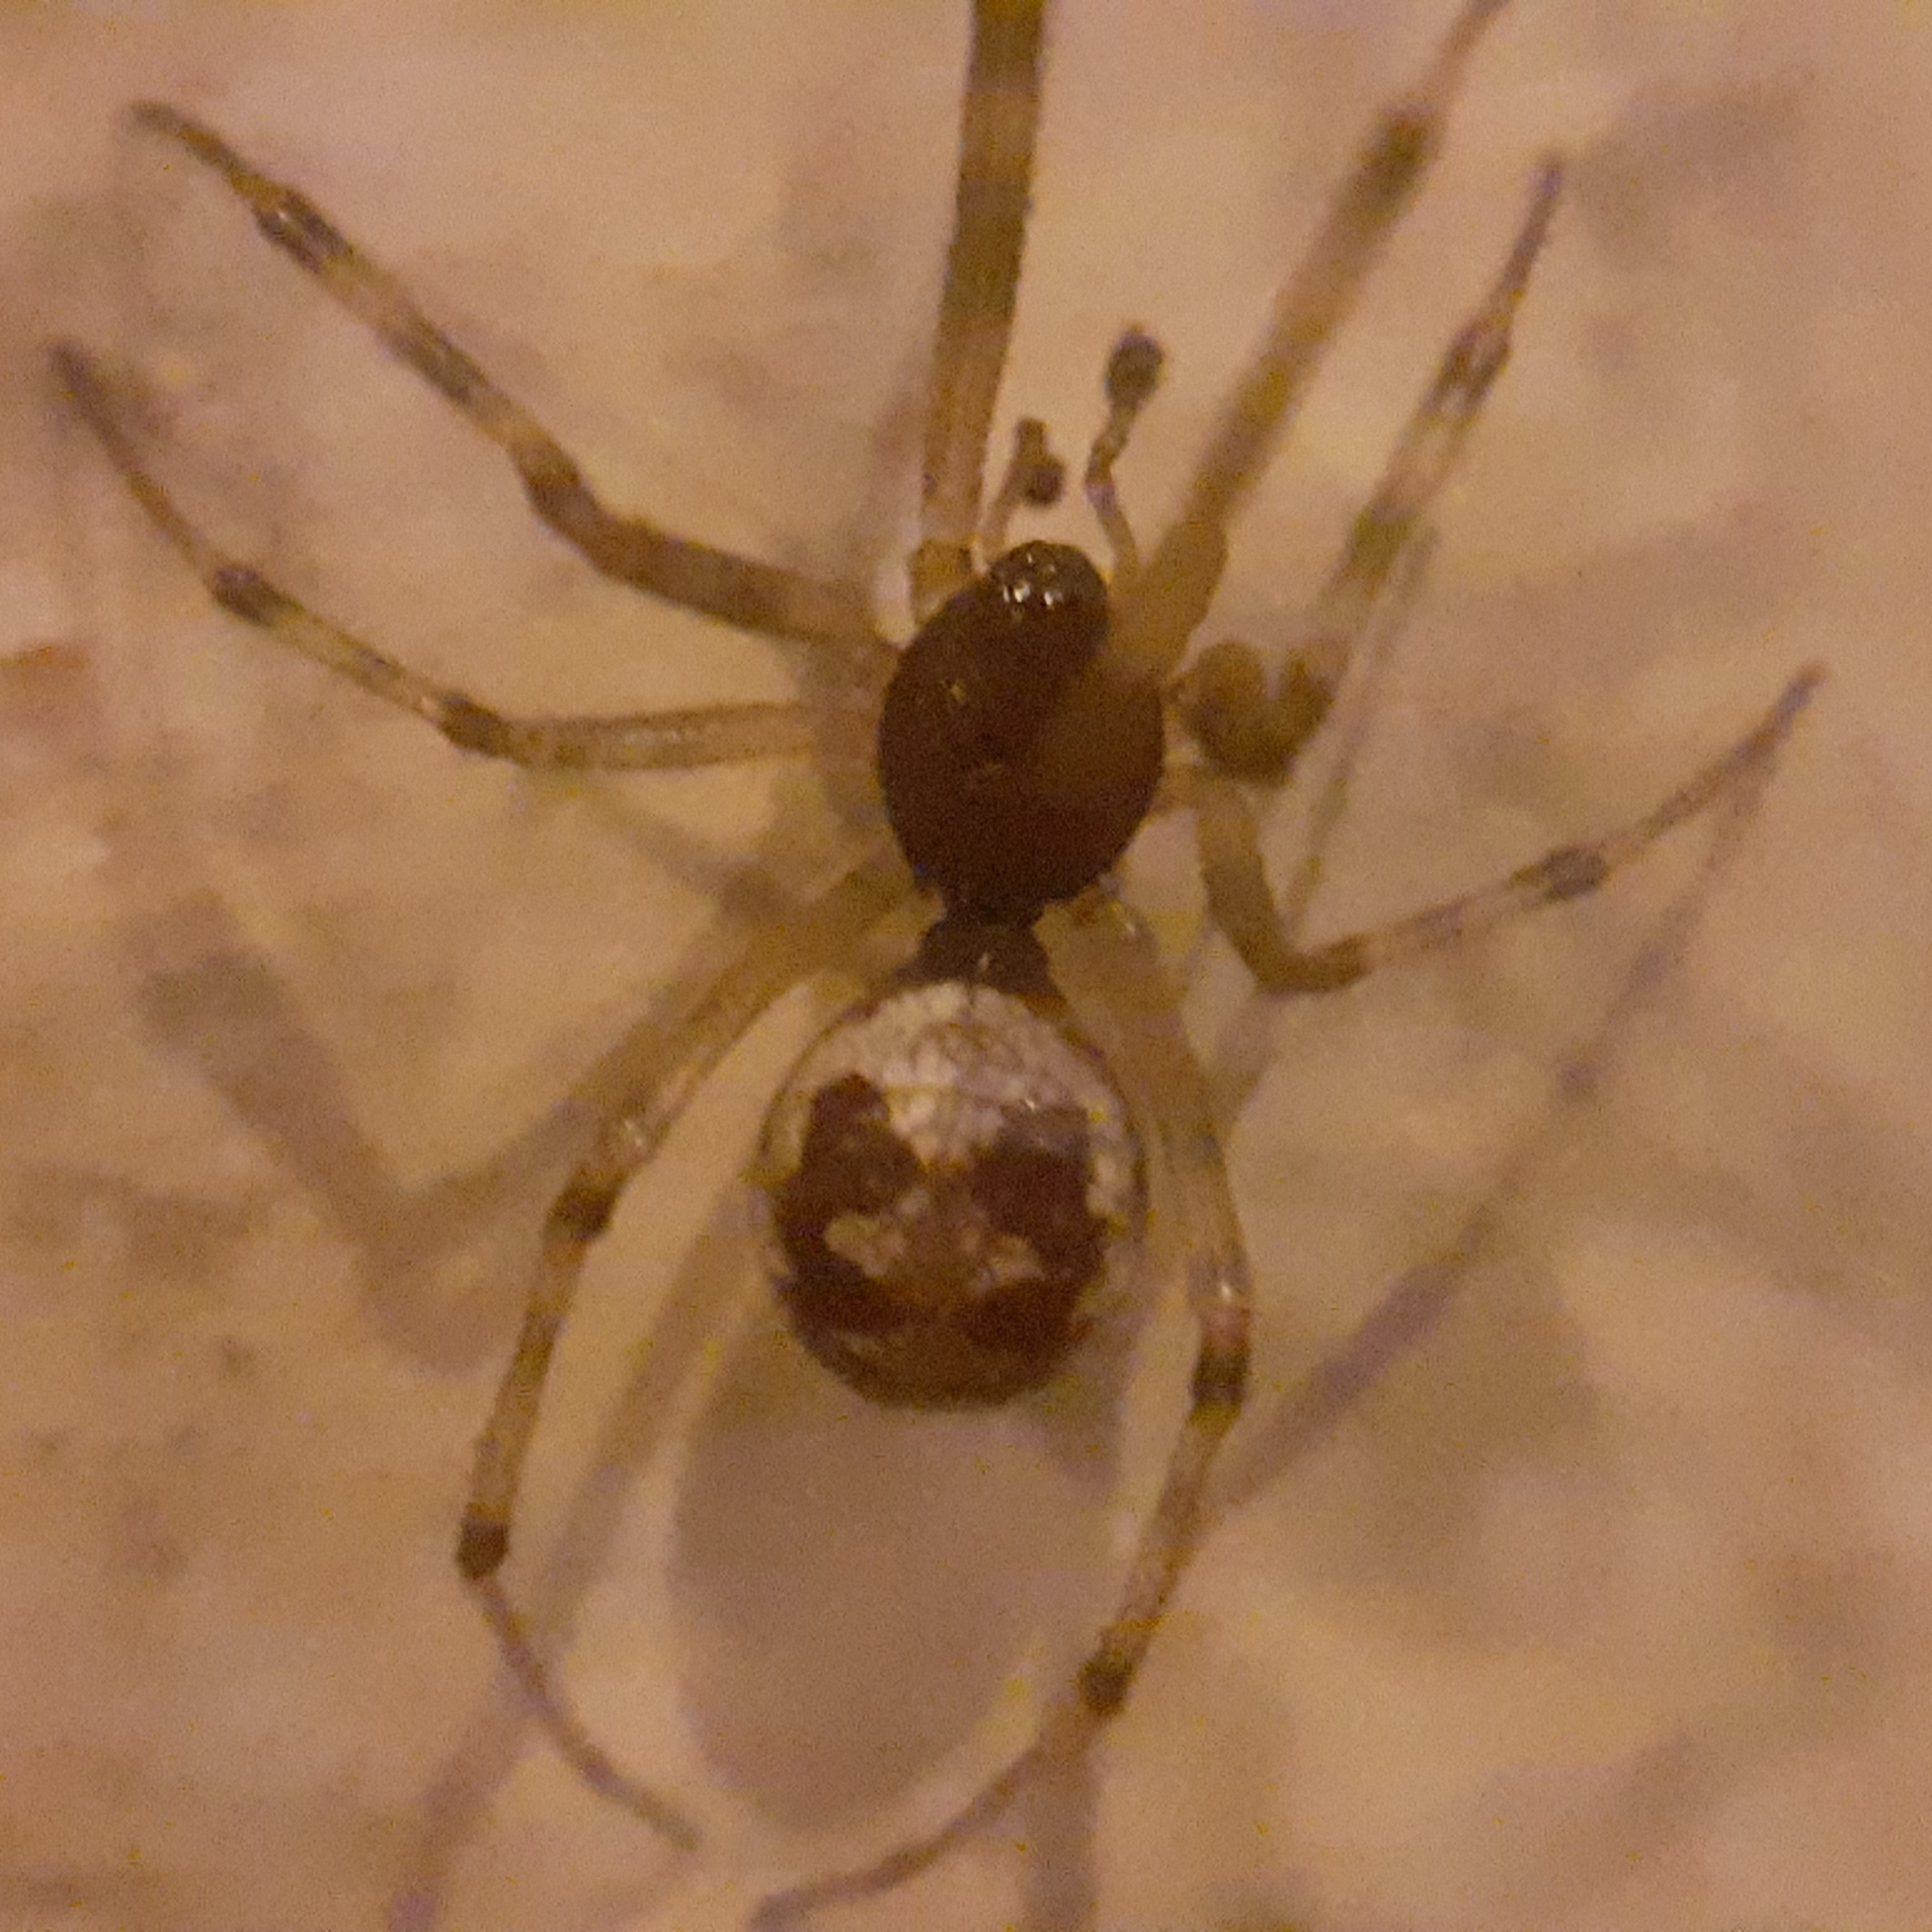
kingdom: Animalia
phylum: Arthropoda
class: Arachnida
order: Araneae
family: Theridiidae
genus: Steatoda
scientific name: Steatoda triangulosa
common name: Triangulate bud spider
